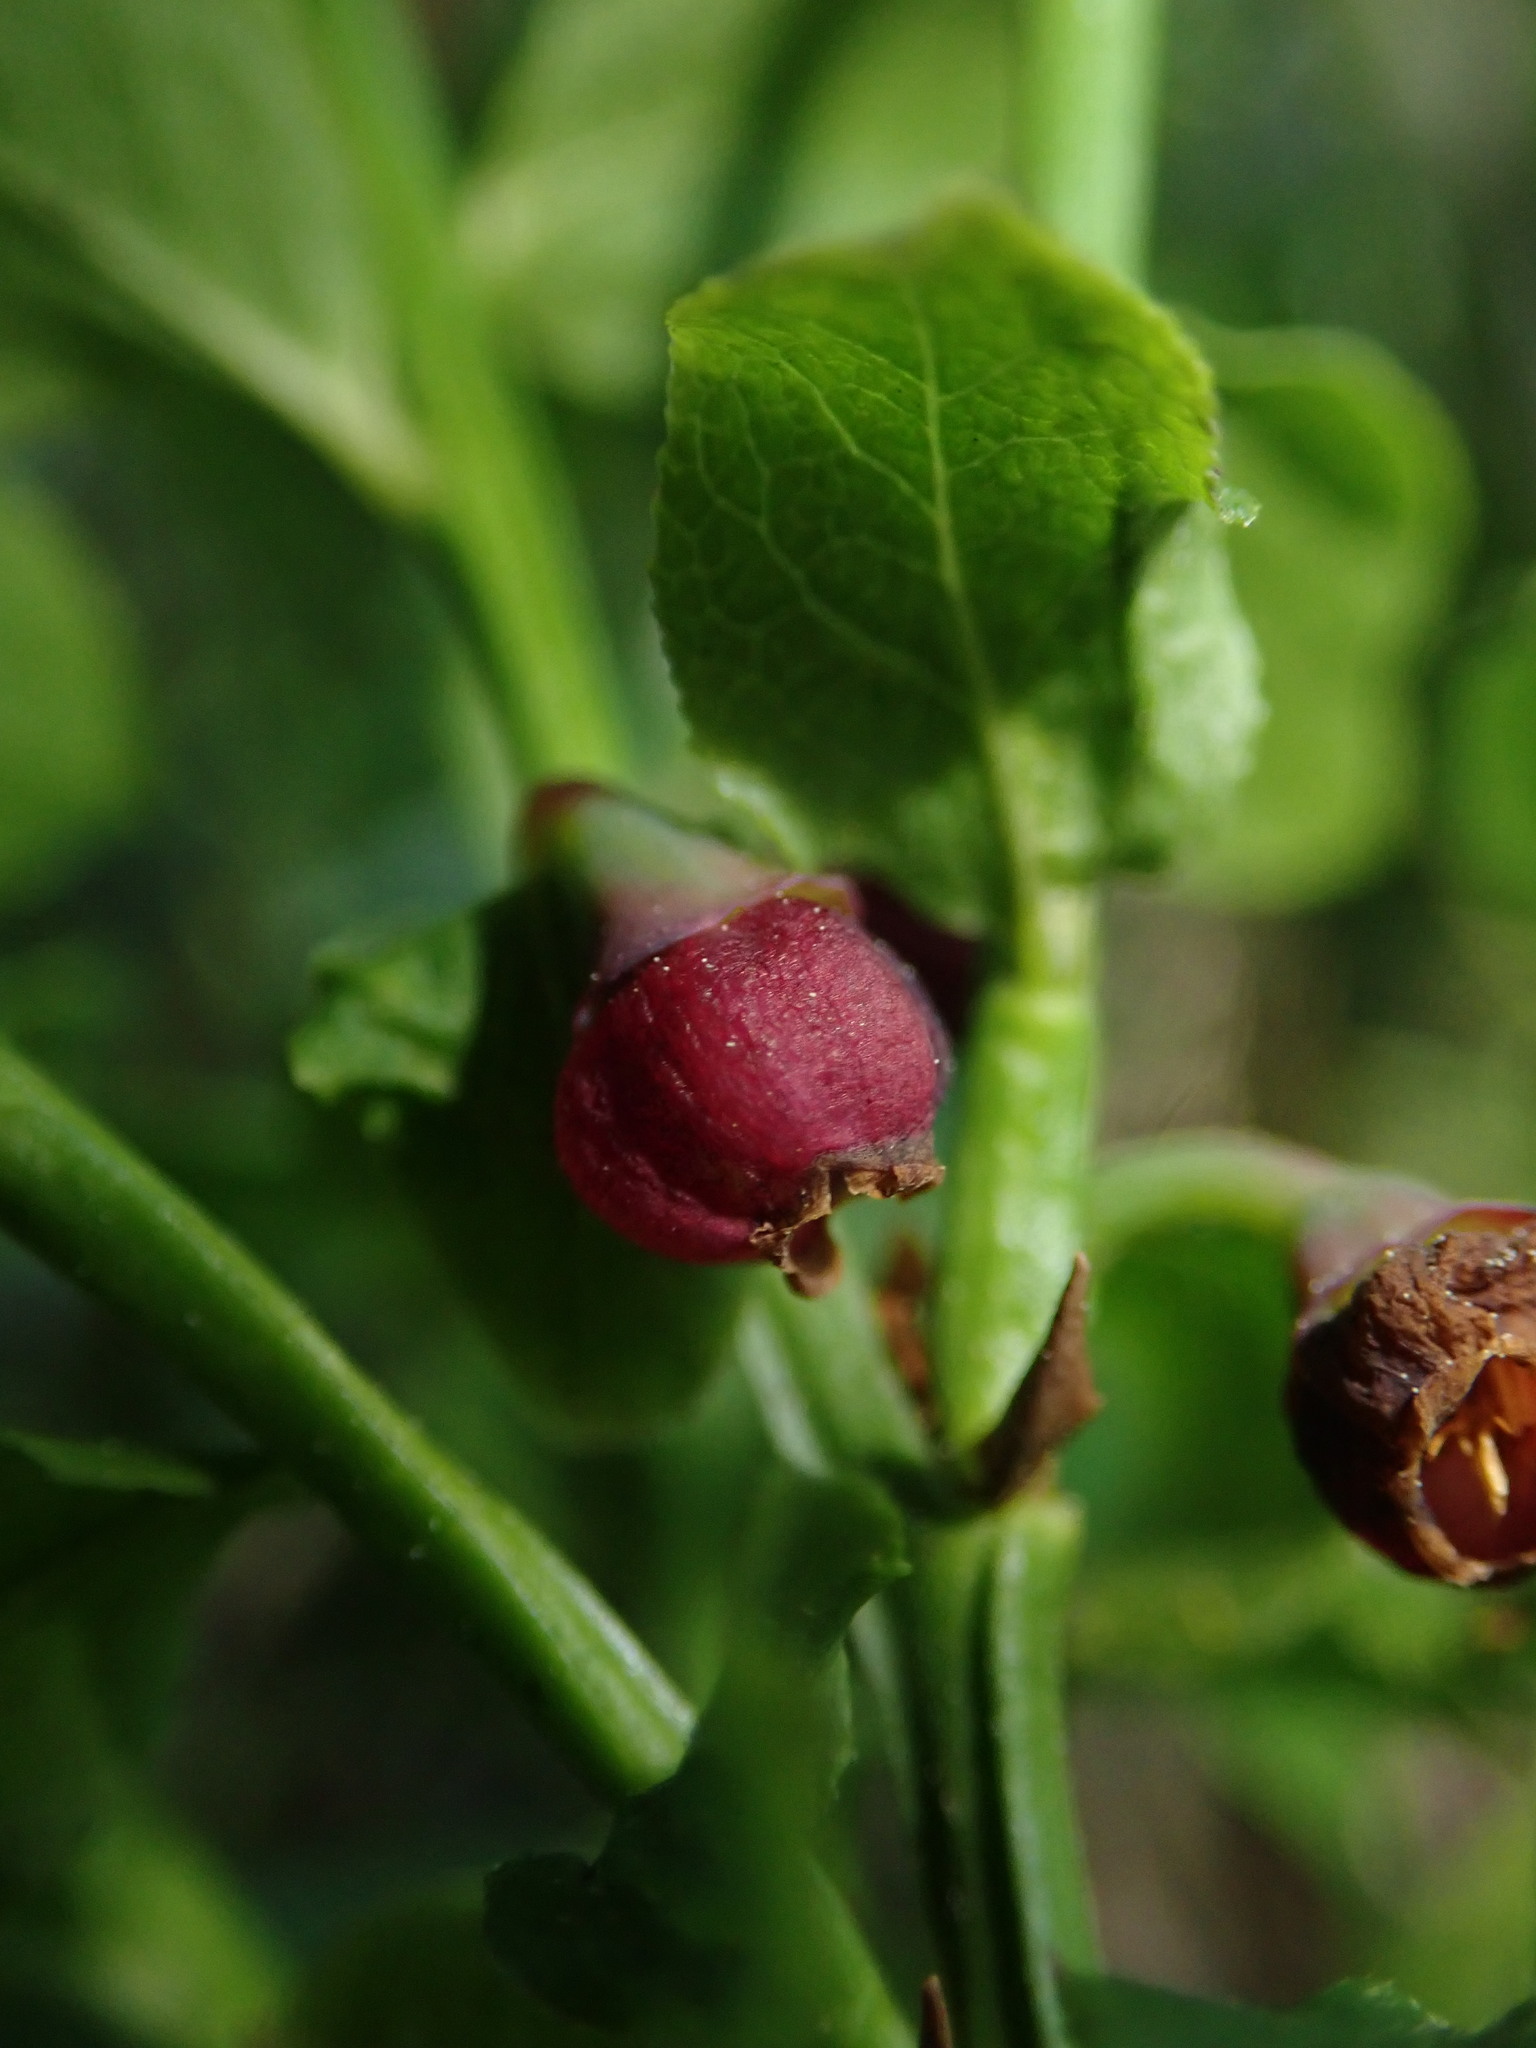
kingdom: Plantae
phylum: Tracheophyta
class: Magnoliopsida
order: Ericales
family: Ericaceae
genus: Vaccinium
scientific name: Vaccinium myrtillus
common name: Bilberry
